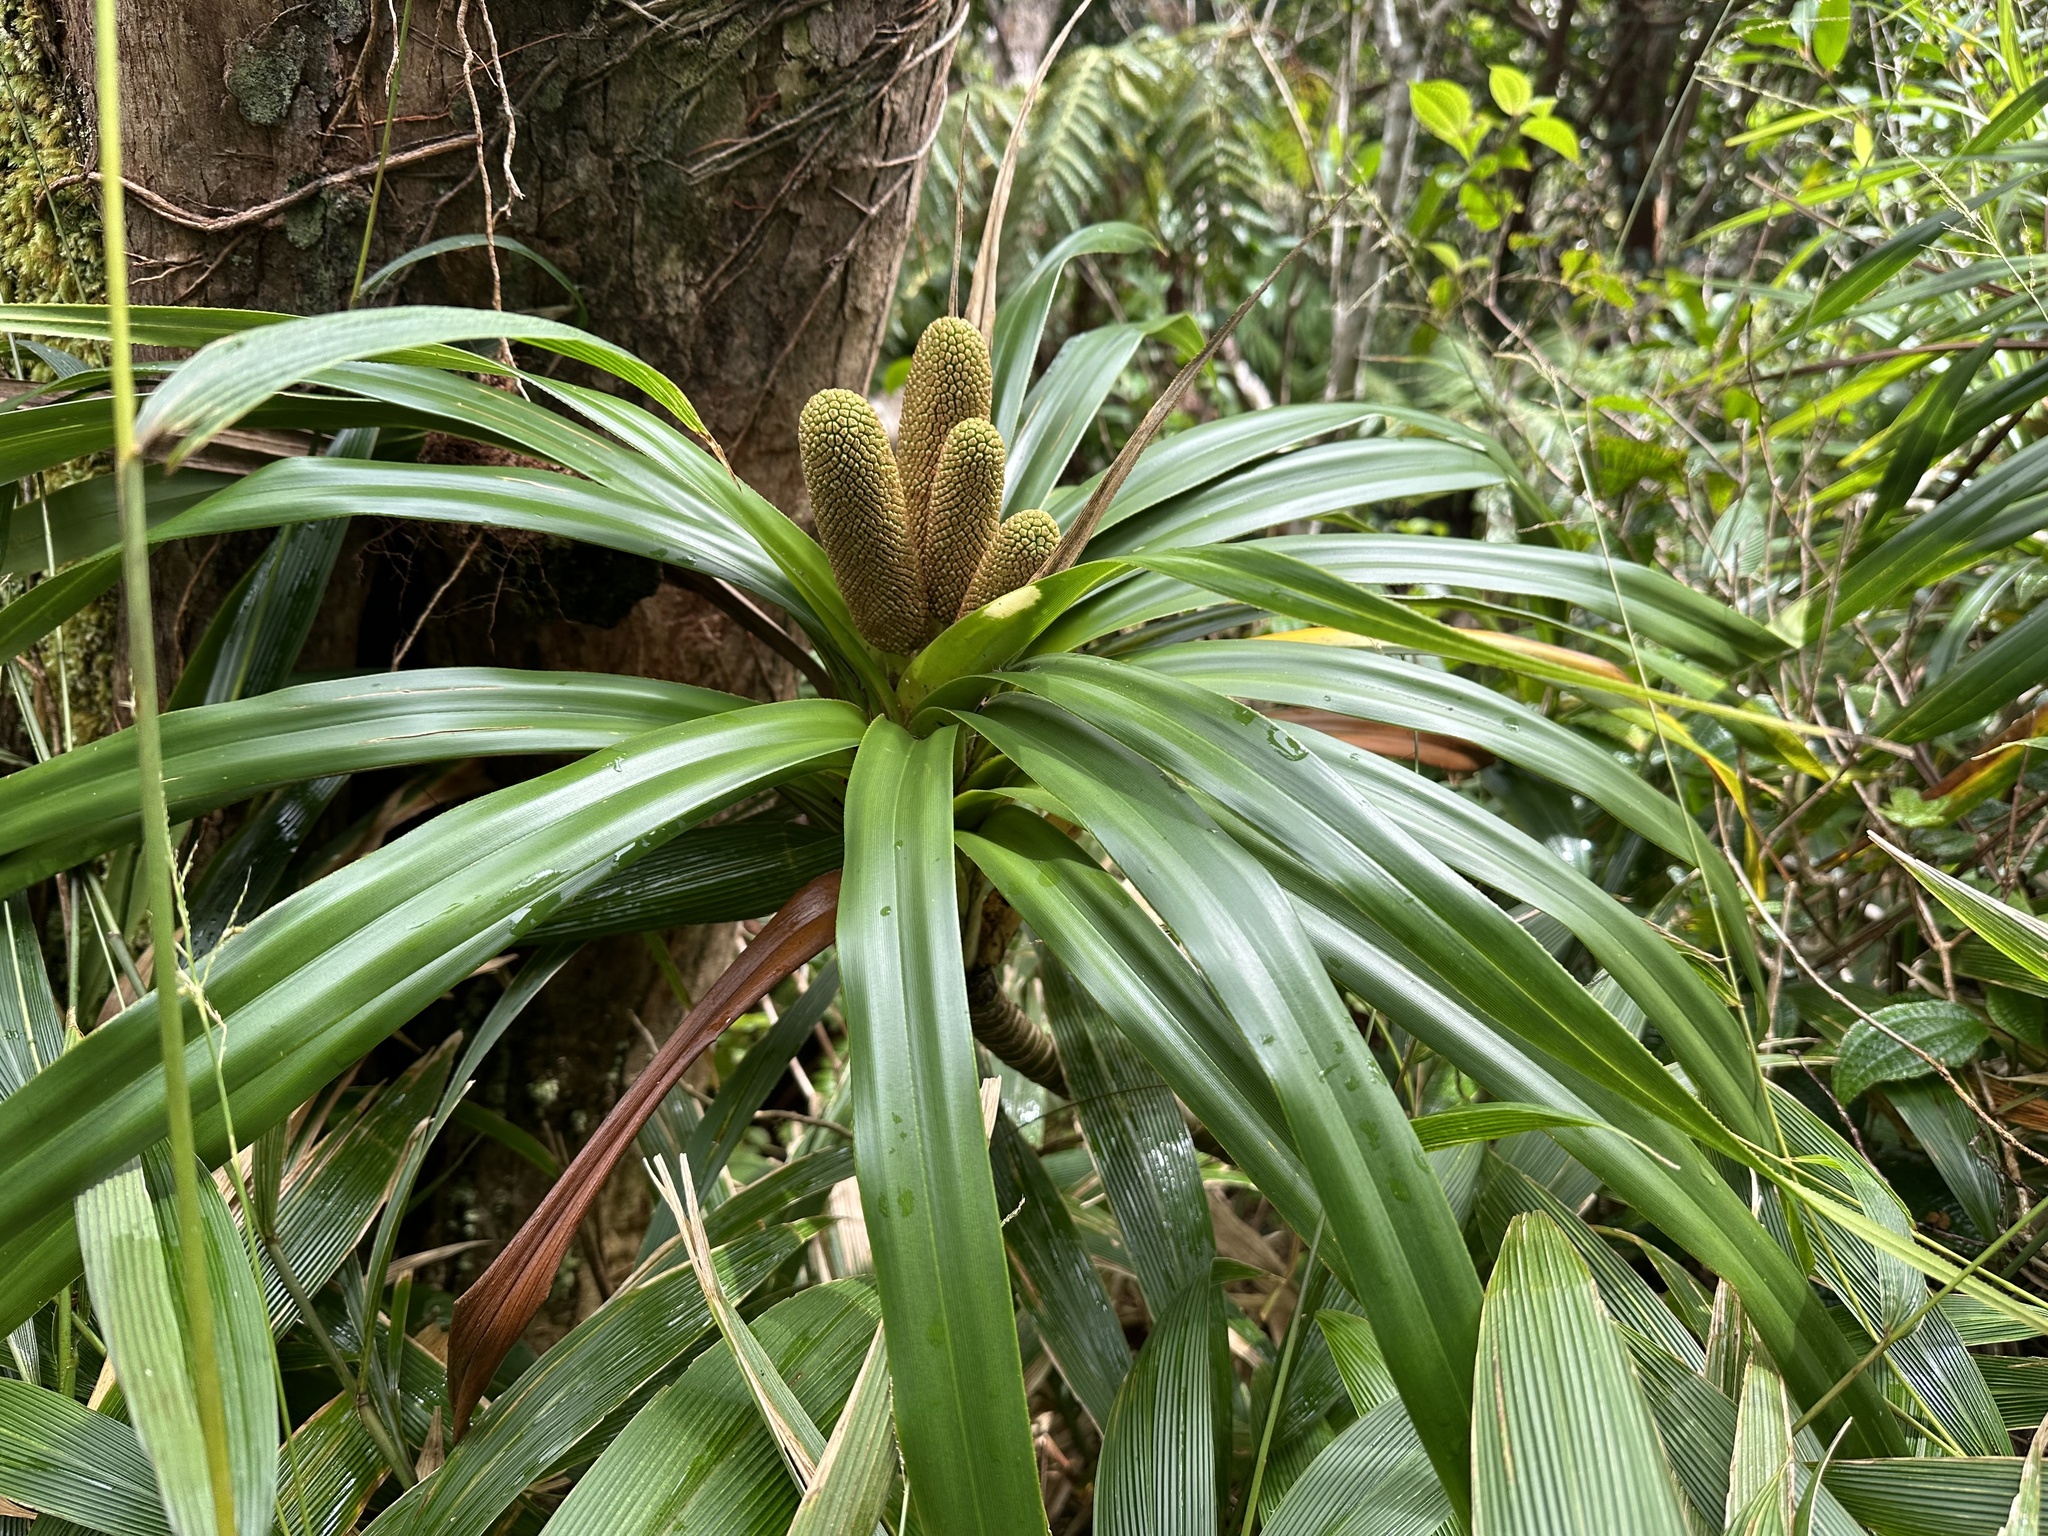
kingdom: Plantae
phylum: Tracheophyta
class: Liliopsida
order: Pandanales
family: Pandanaceae
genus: Freycinetia
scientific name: Freycinetia arborea
